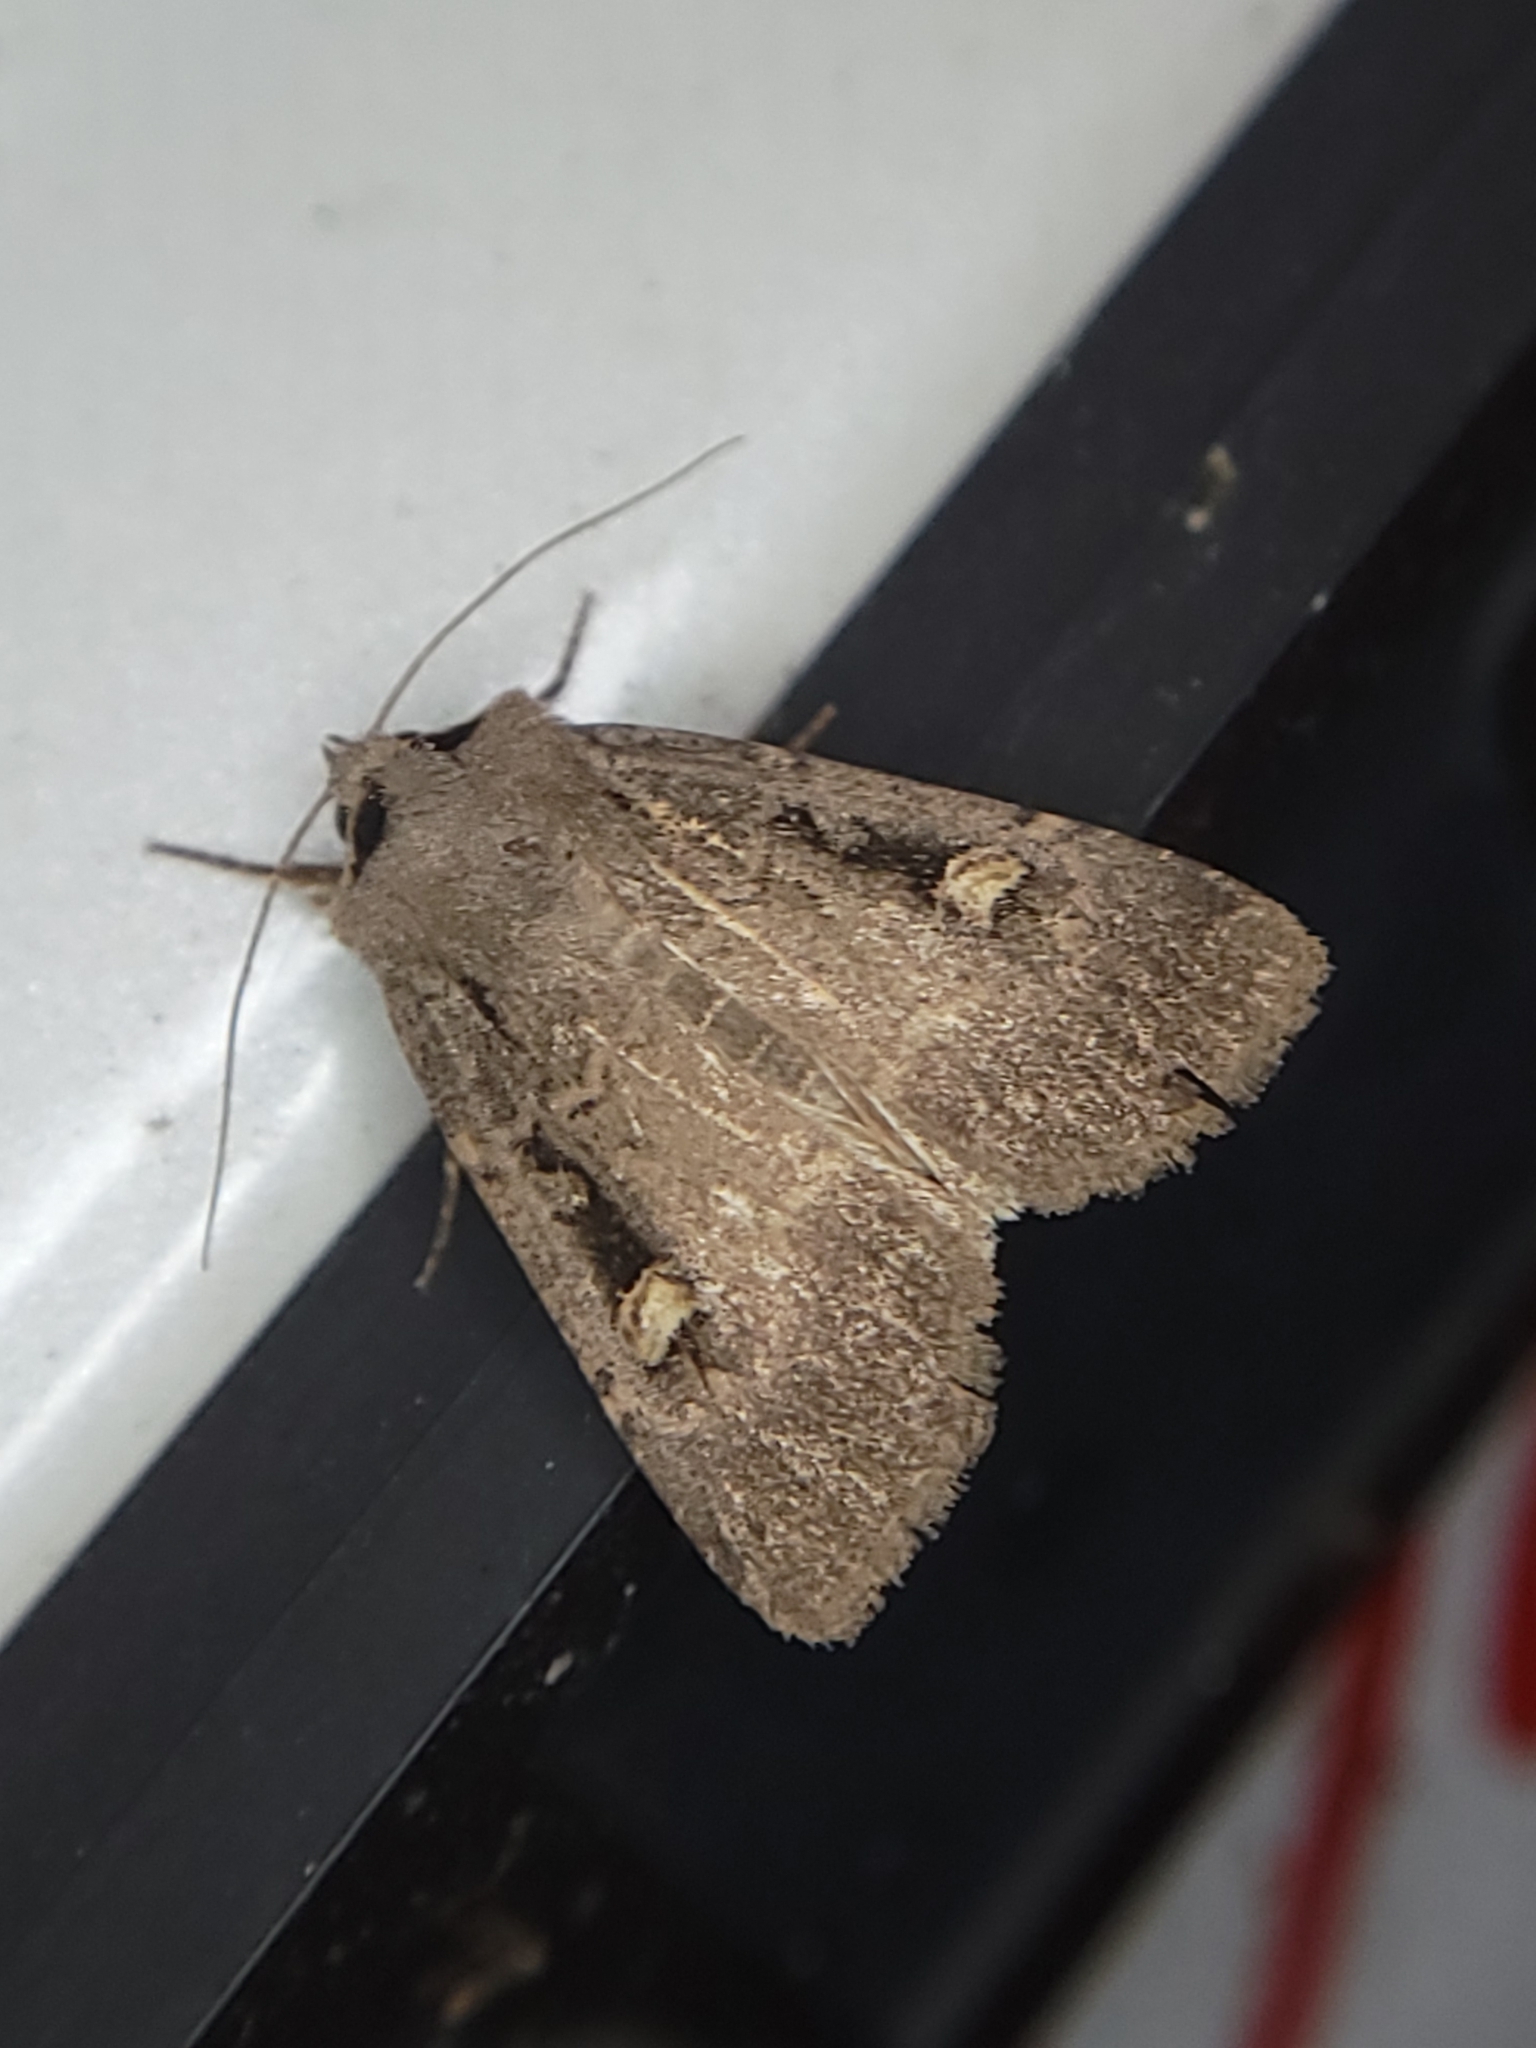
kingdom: Animalia
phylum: Arthropoda
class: Insecta
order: Lepidoptera
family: Noctuidae
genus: Adelphagrotis
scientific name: Adelphagrotis indeterminata
